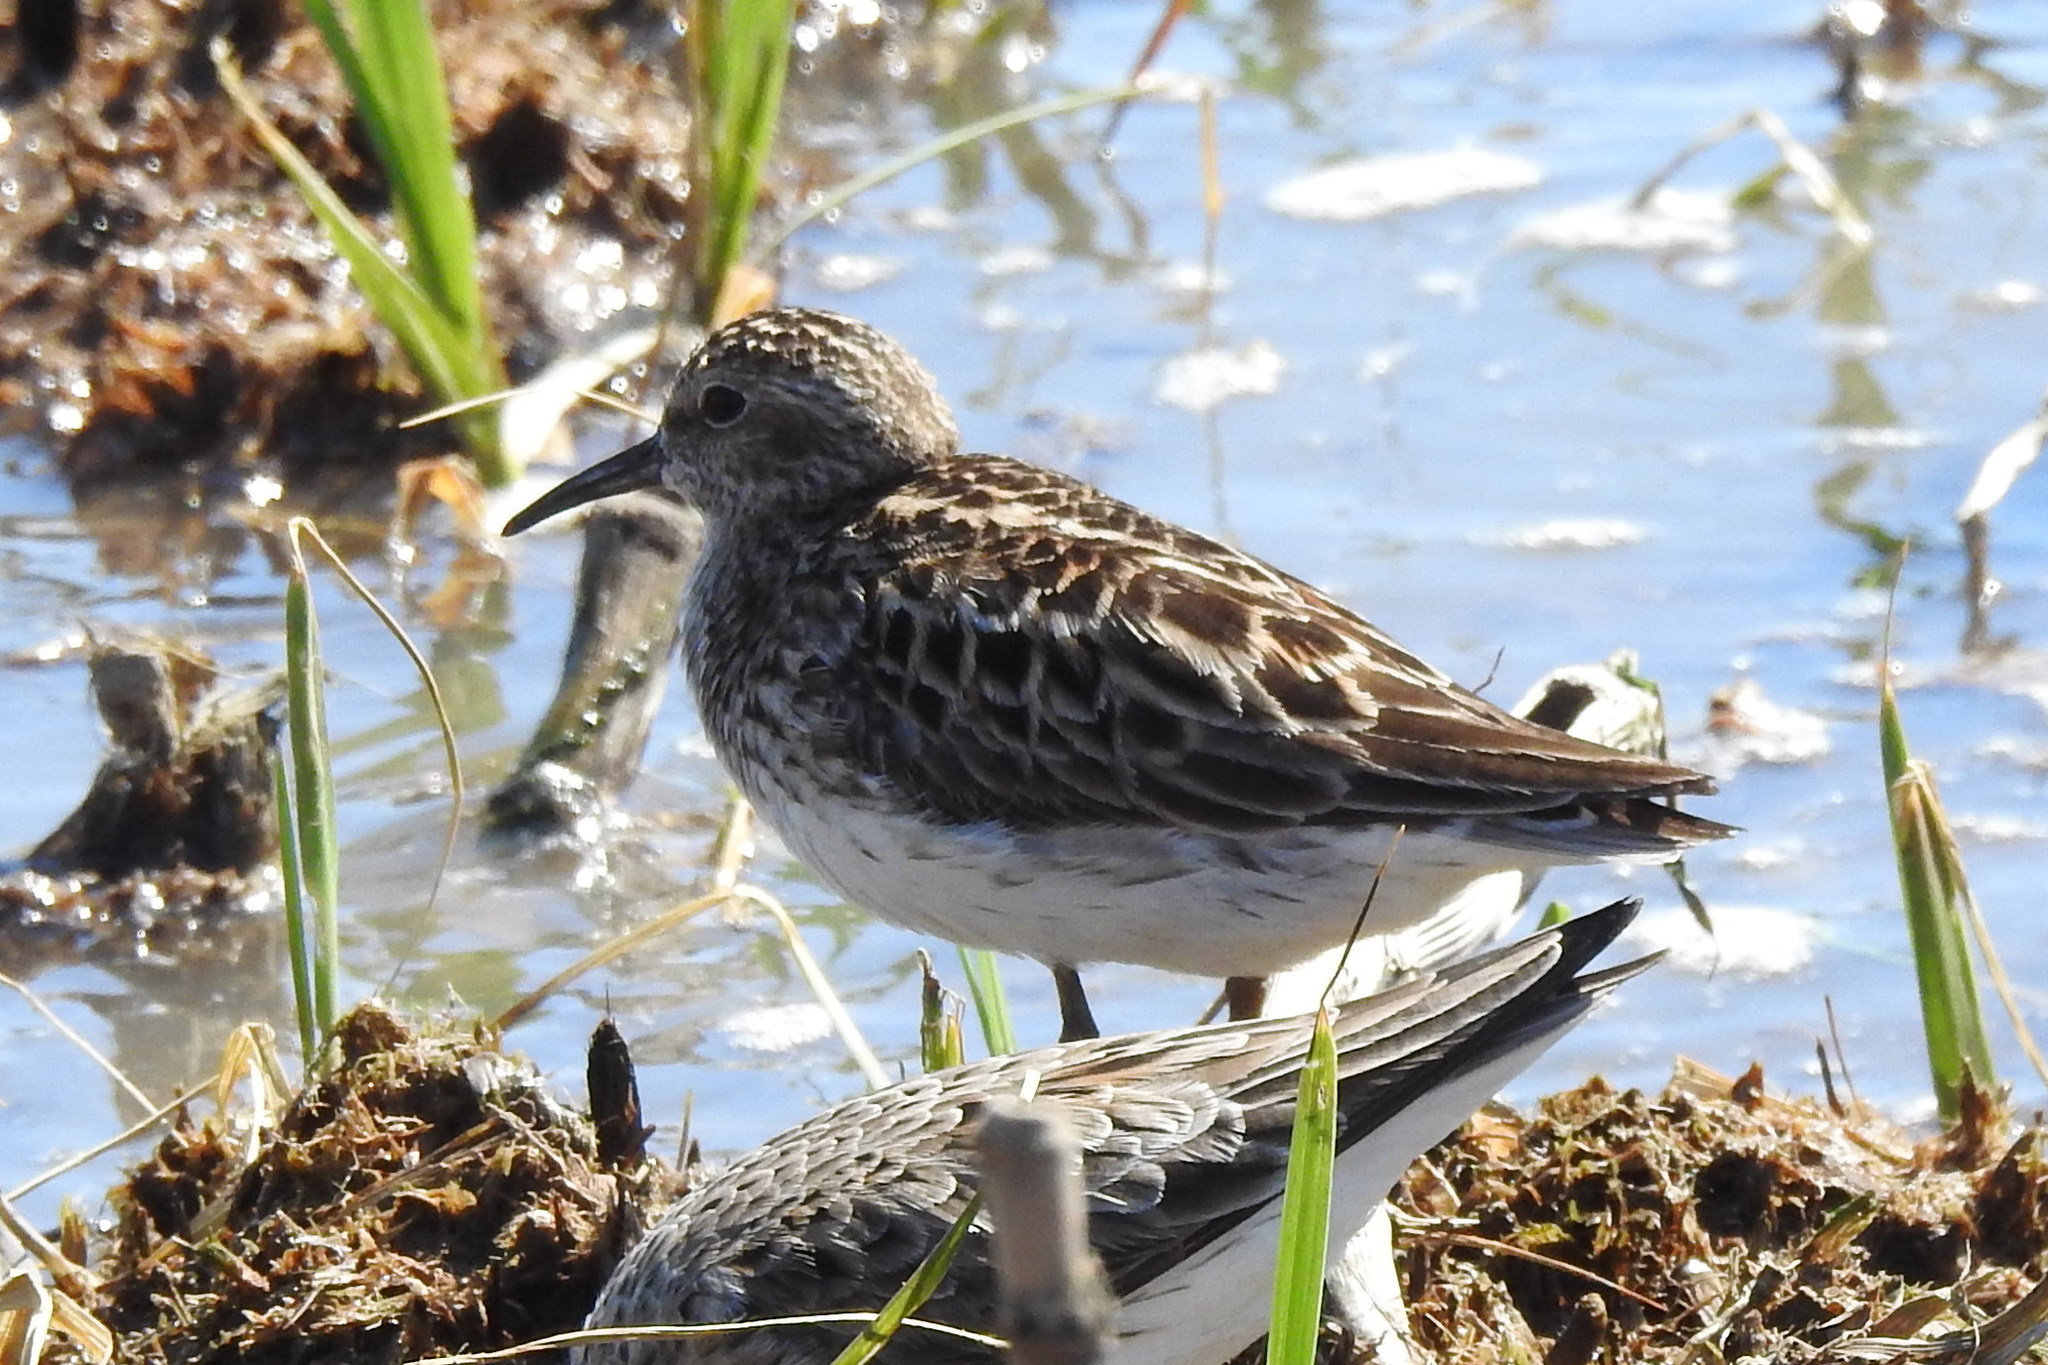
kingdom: Animalia
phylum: Chordata
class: Aves
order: Charadriiformes
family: Scolopacidae
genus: Calidris
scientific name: Calidris minutilla
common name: Least sandpiper
